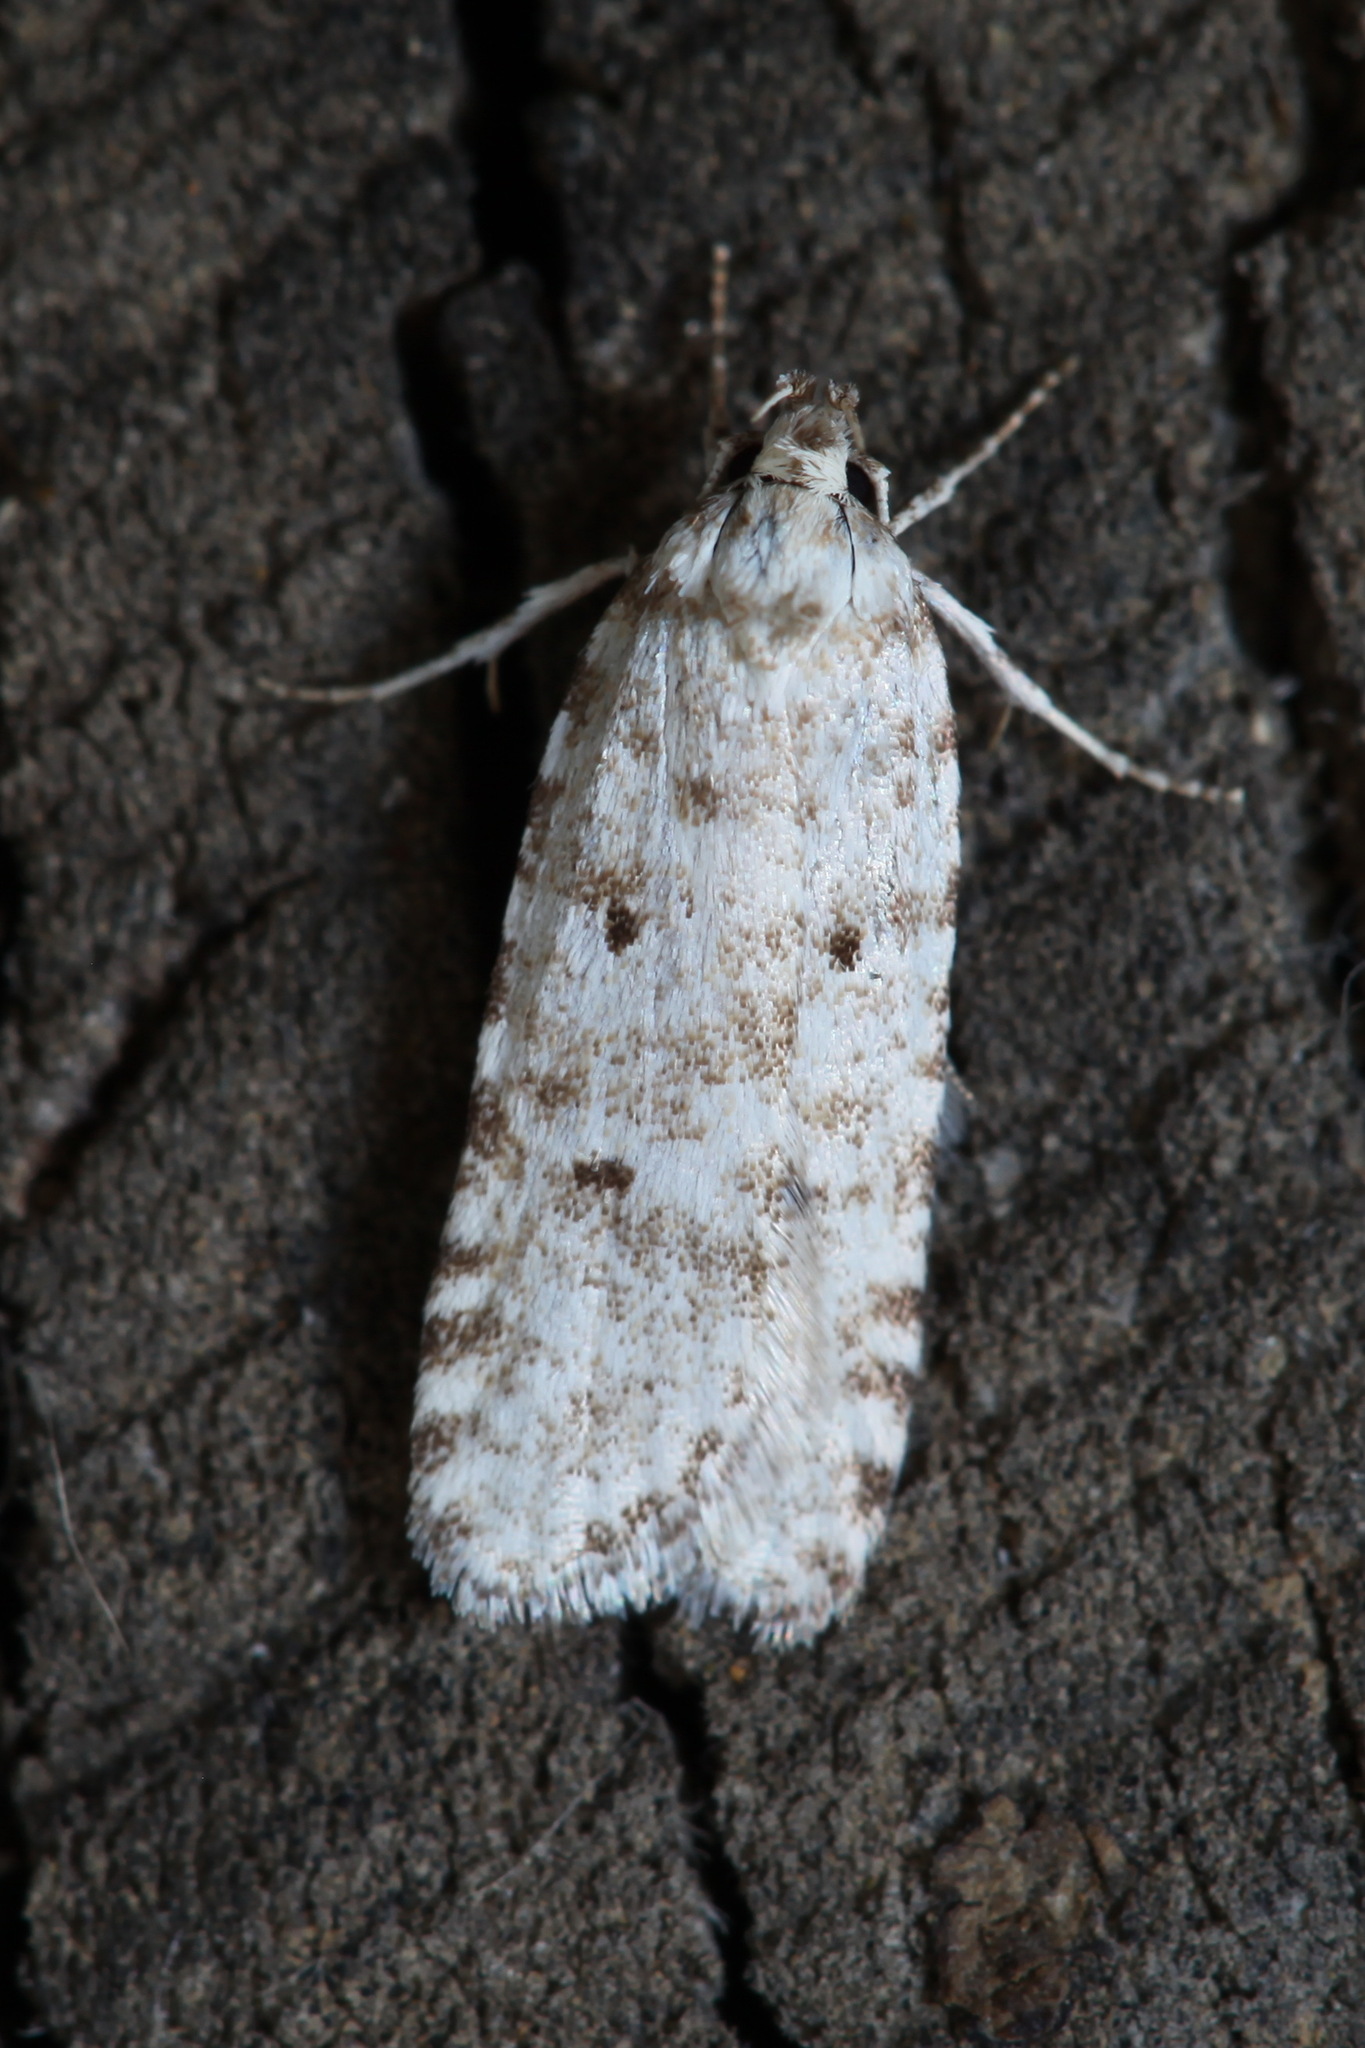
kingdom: Animalia
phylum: Arthropoda
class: Insecta
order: Lepidoptera
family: Depressariidae
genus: Exaeretia
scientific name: Exaeretia niviferella
